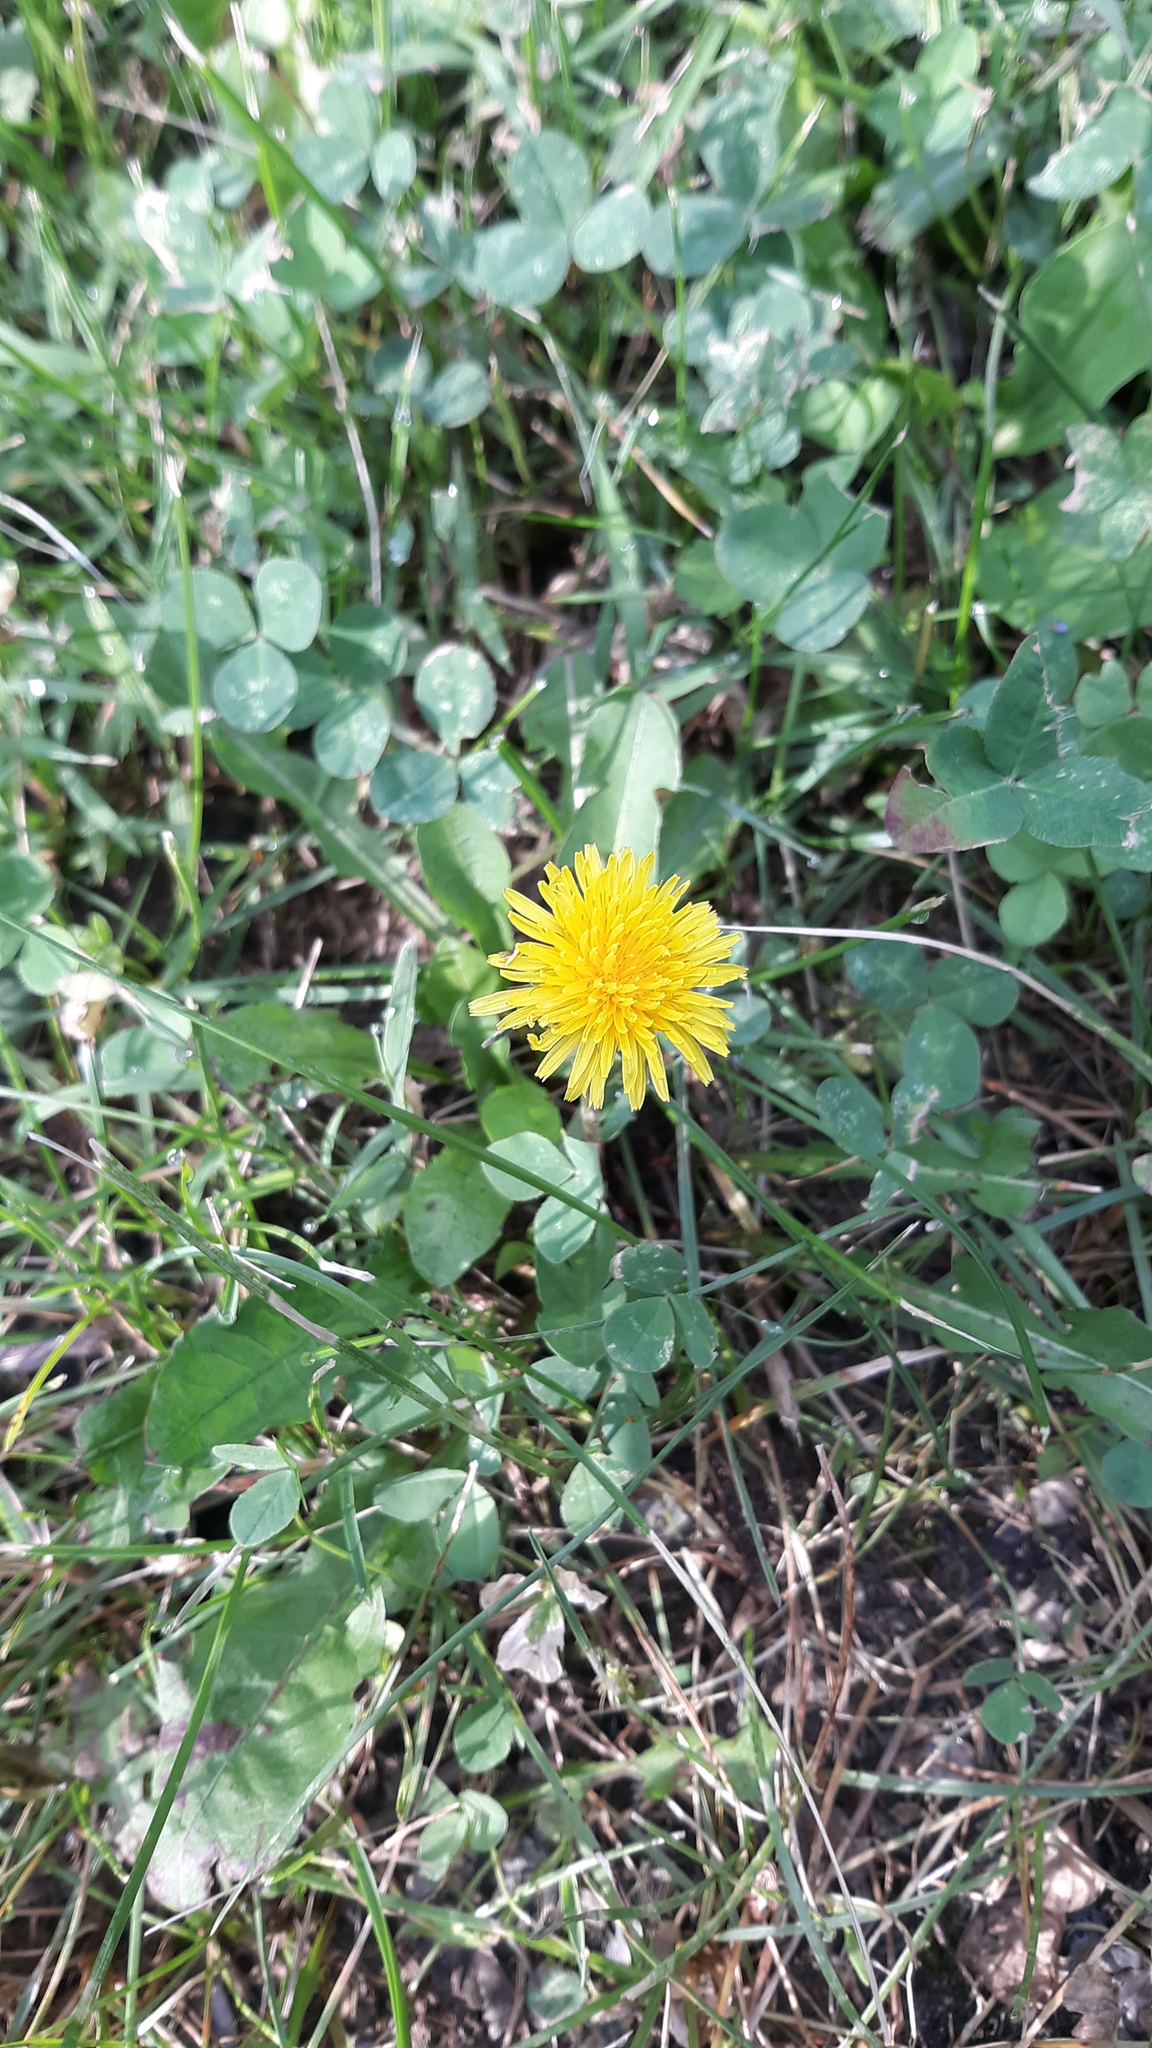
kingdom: Plantae
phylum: Tracheophyta
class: Magnoliopsida
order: Asterales
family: Asteraceae
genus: Taraxacum
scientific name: Taraxacum officinale
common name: Common dandelion
